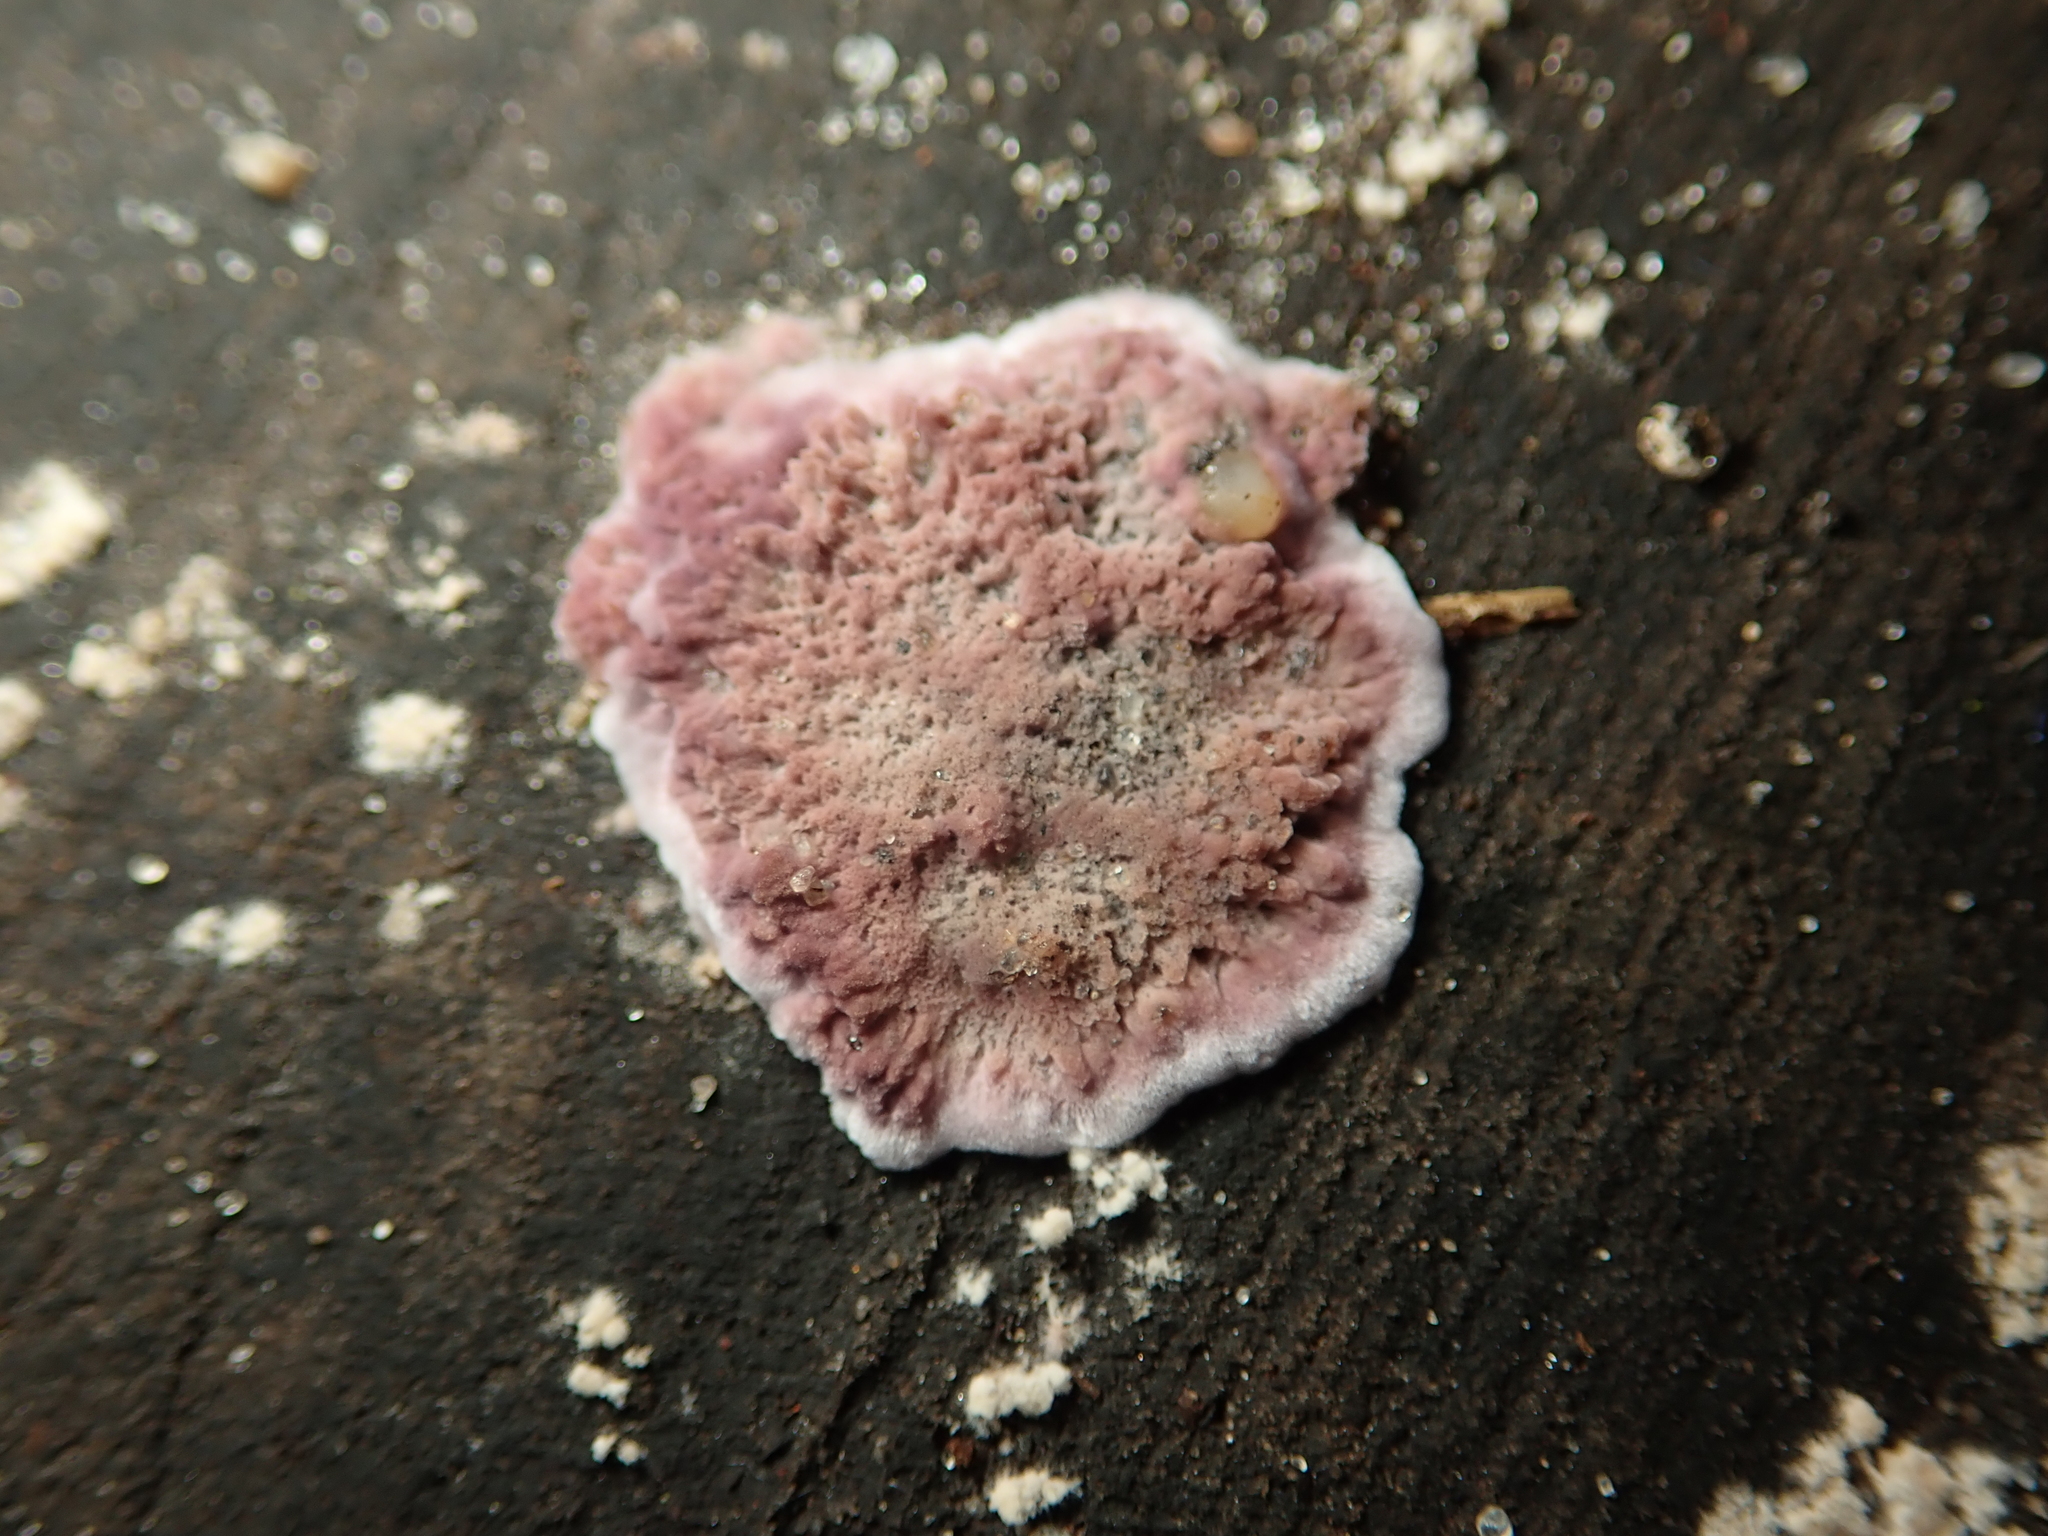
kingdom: Fungi
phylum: Basidiomycota
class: Agaricomycetes
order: Agaricales
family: Cyphellaceae
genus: Chondrostereum
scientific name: Chondrostereum purpureum
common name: Silver leaf disease
